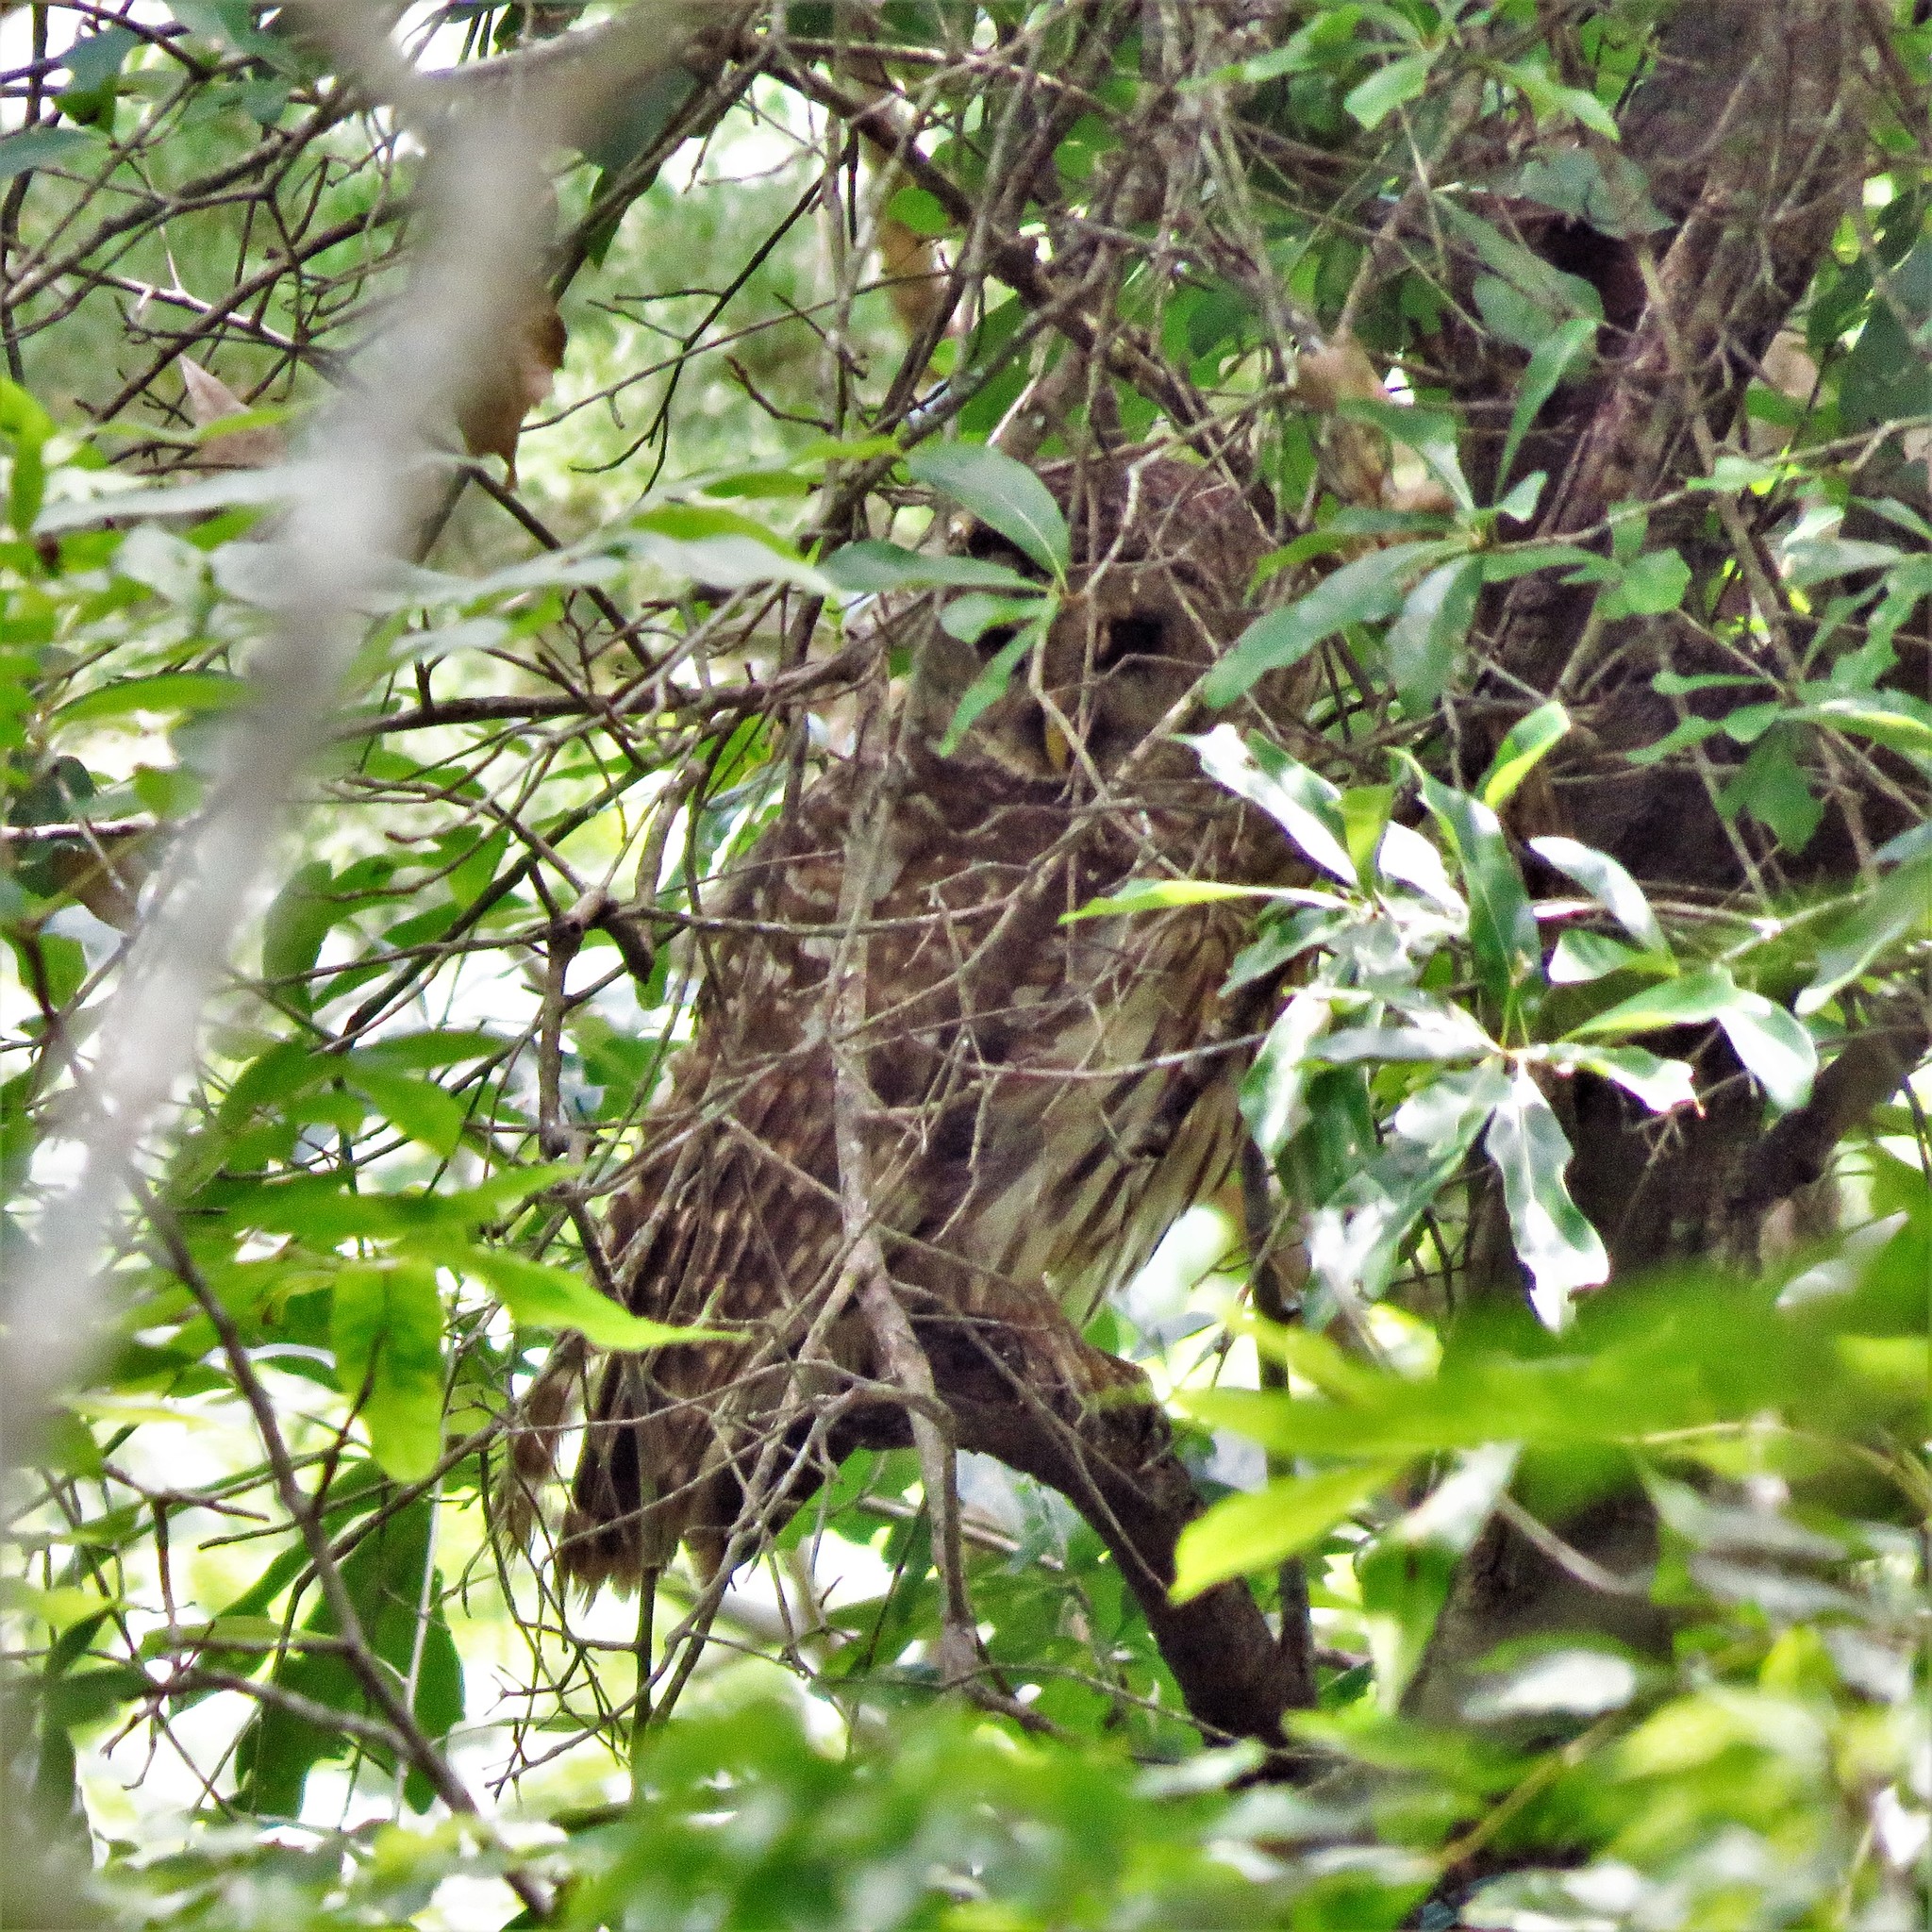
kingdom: Animalia
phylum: Chordata
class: Aves
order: Strigiformes
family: Strigidae
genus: Strix
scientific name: Strix varia
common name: Barred owl
